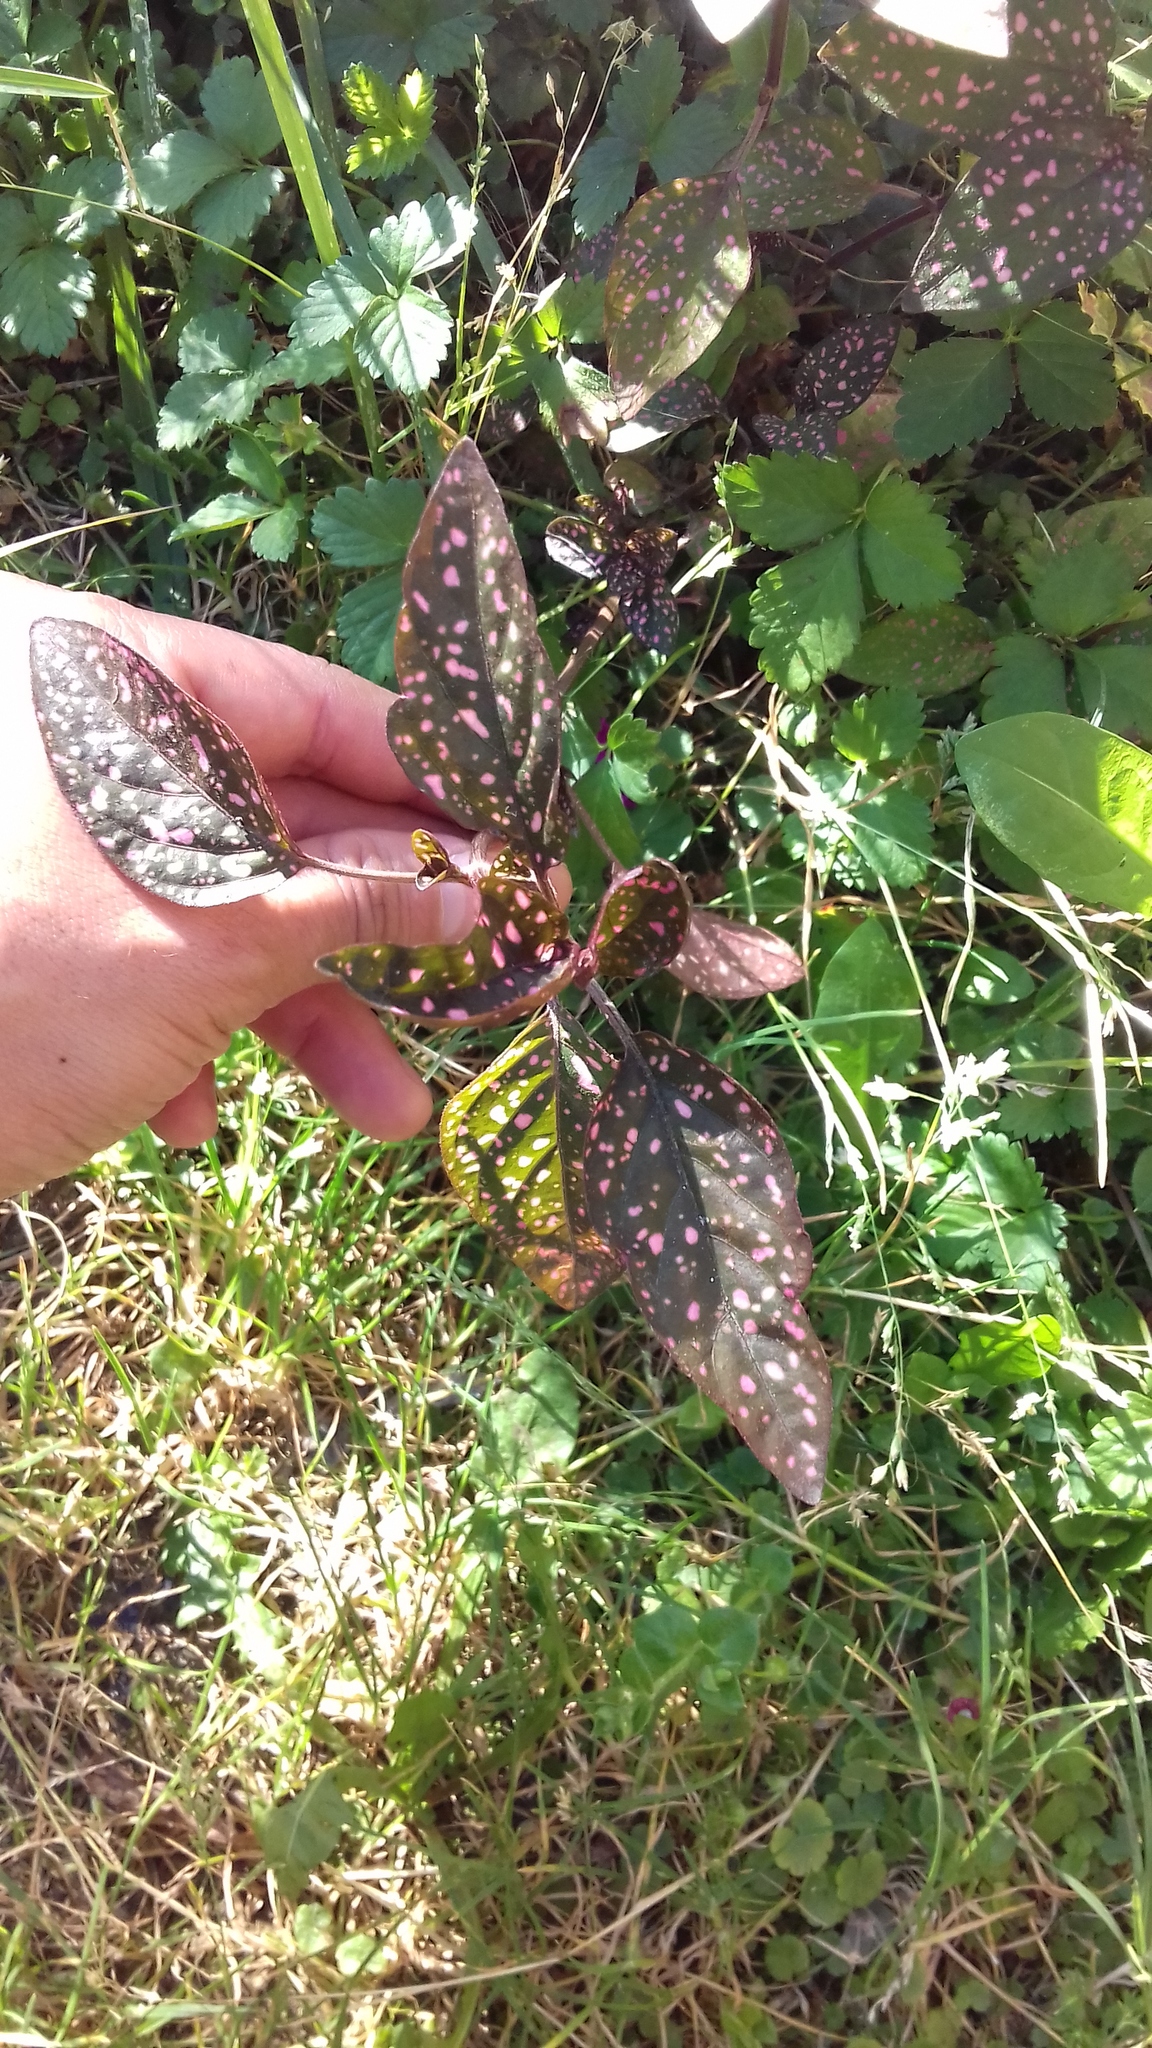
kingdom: Plantae
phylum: Tracheophyta
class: Magnoliopsida
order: Lamiales
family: Acanthaceae
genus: Hypoestes
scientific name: Hypoestes phyllostachya
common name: Polkadot-plant
